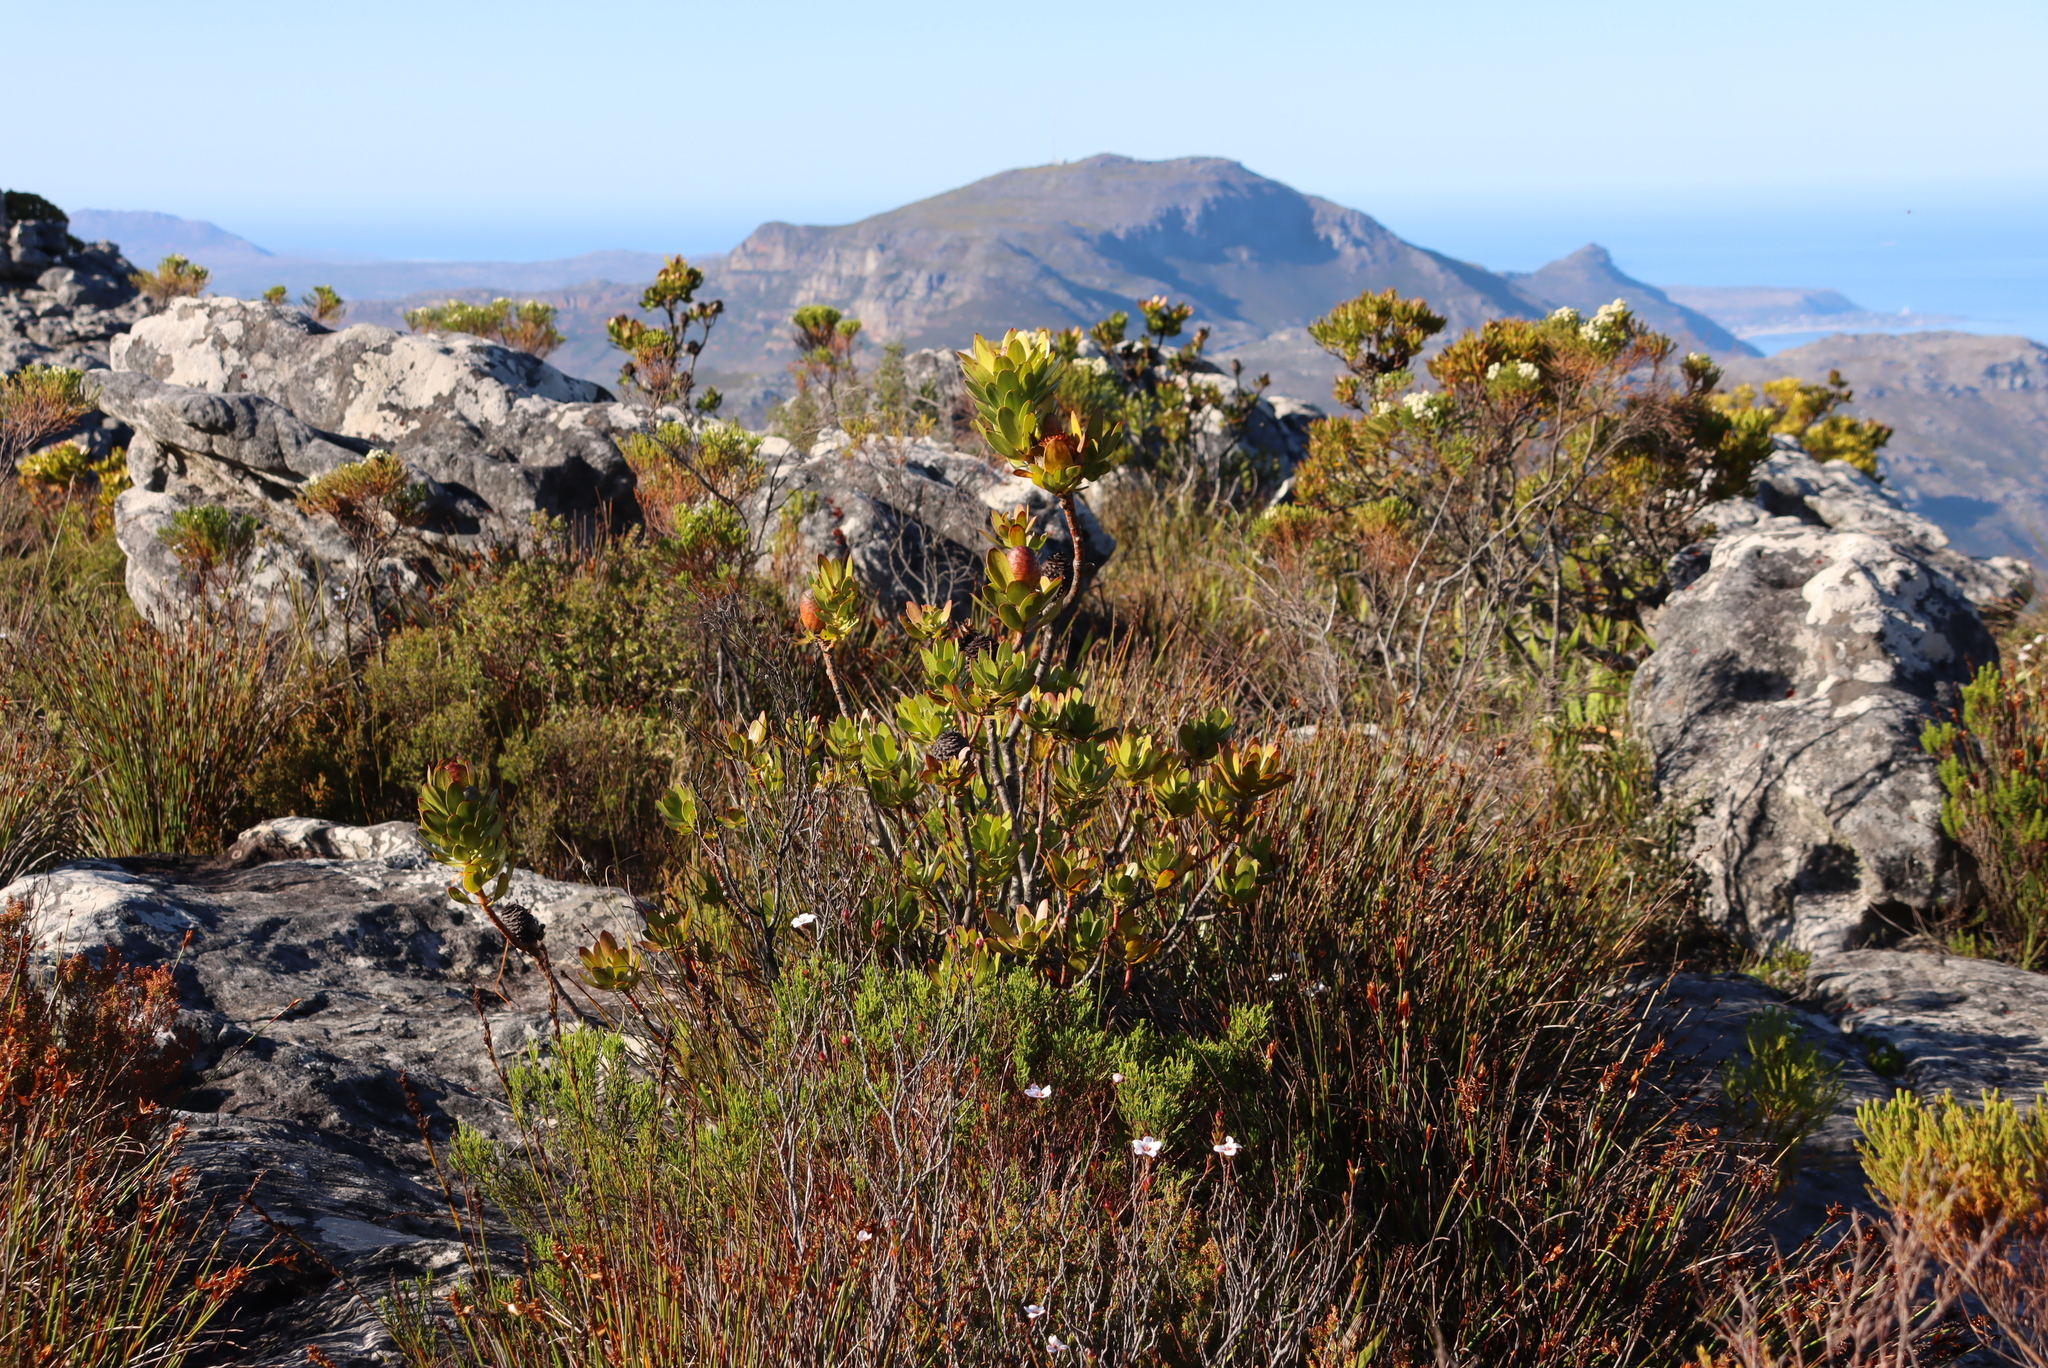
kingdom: Plantae
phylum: Tracheophyta
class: Magnoliopsida
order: Proteales
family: Proteaceae
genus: Leucadendron
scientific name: Leucadendron strobilinum
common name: Mountain rose
